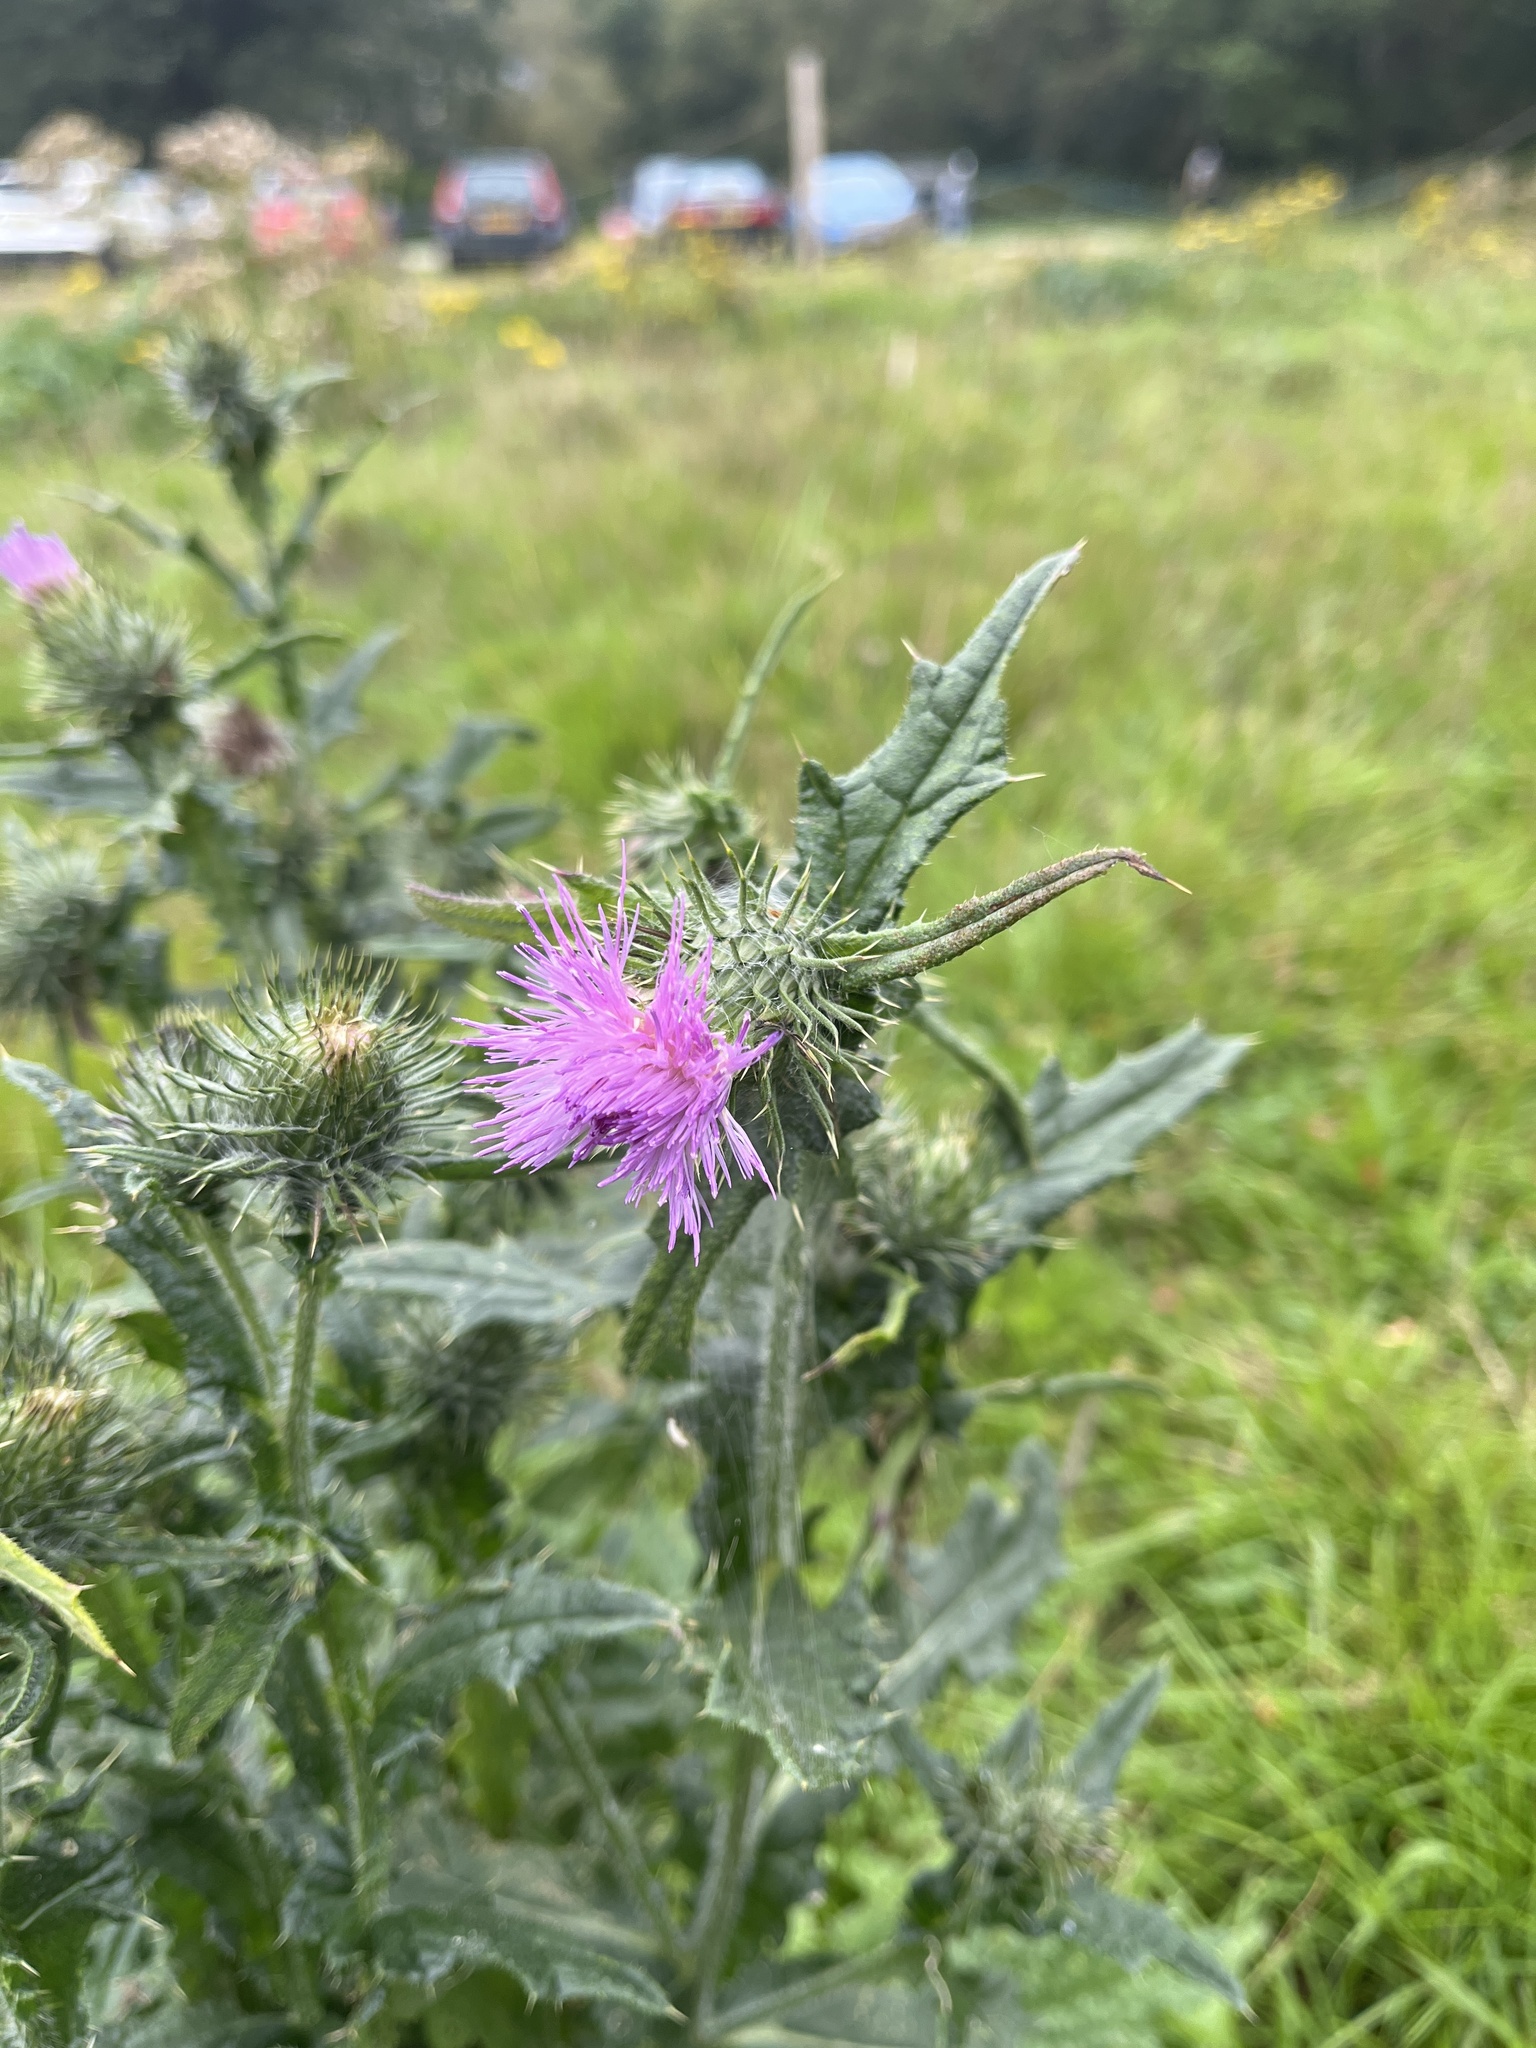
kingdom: Plantae
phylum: Tracheophyta
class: Magnoliopsida
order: Asterales
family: Asteraceae
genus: Cirsium
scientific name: Cirsium vulgare
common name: Bull thistle
